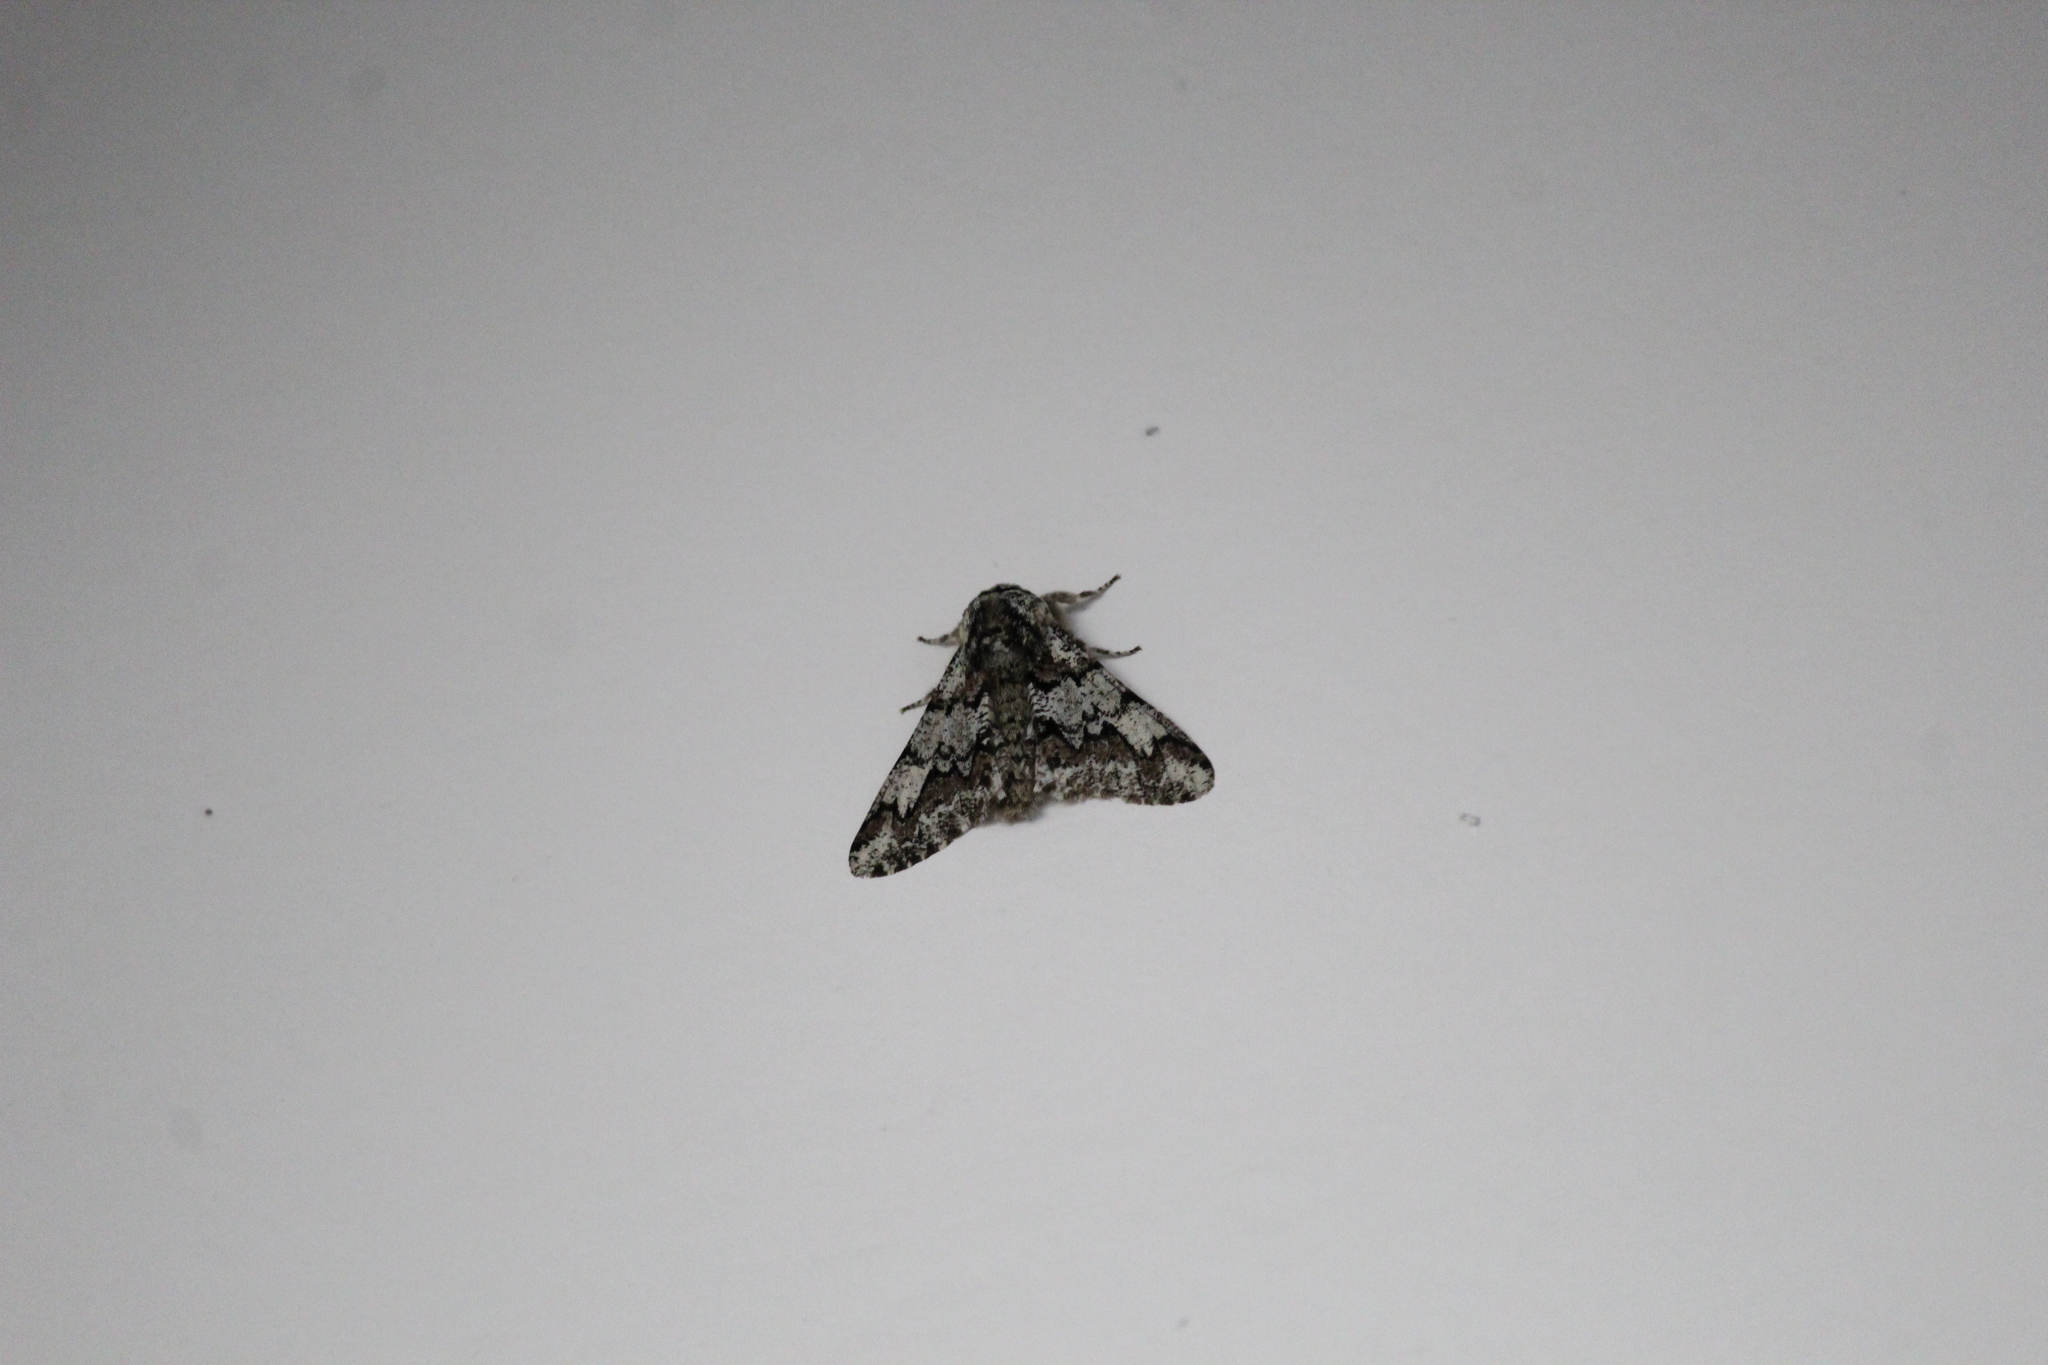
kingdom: Animalia
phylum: Arthropoda
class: Insecta
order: Lepidoptera
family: Geometridae
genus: Biston
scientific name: Biston strataria
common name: Oak beauty
